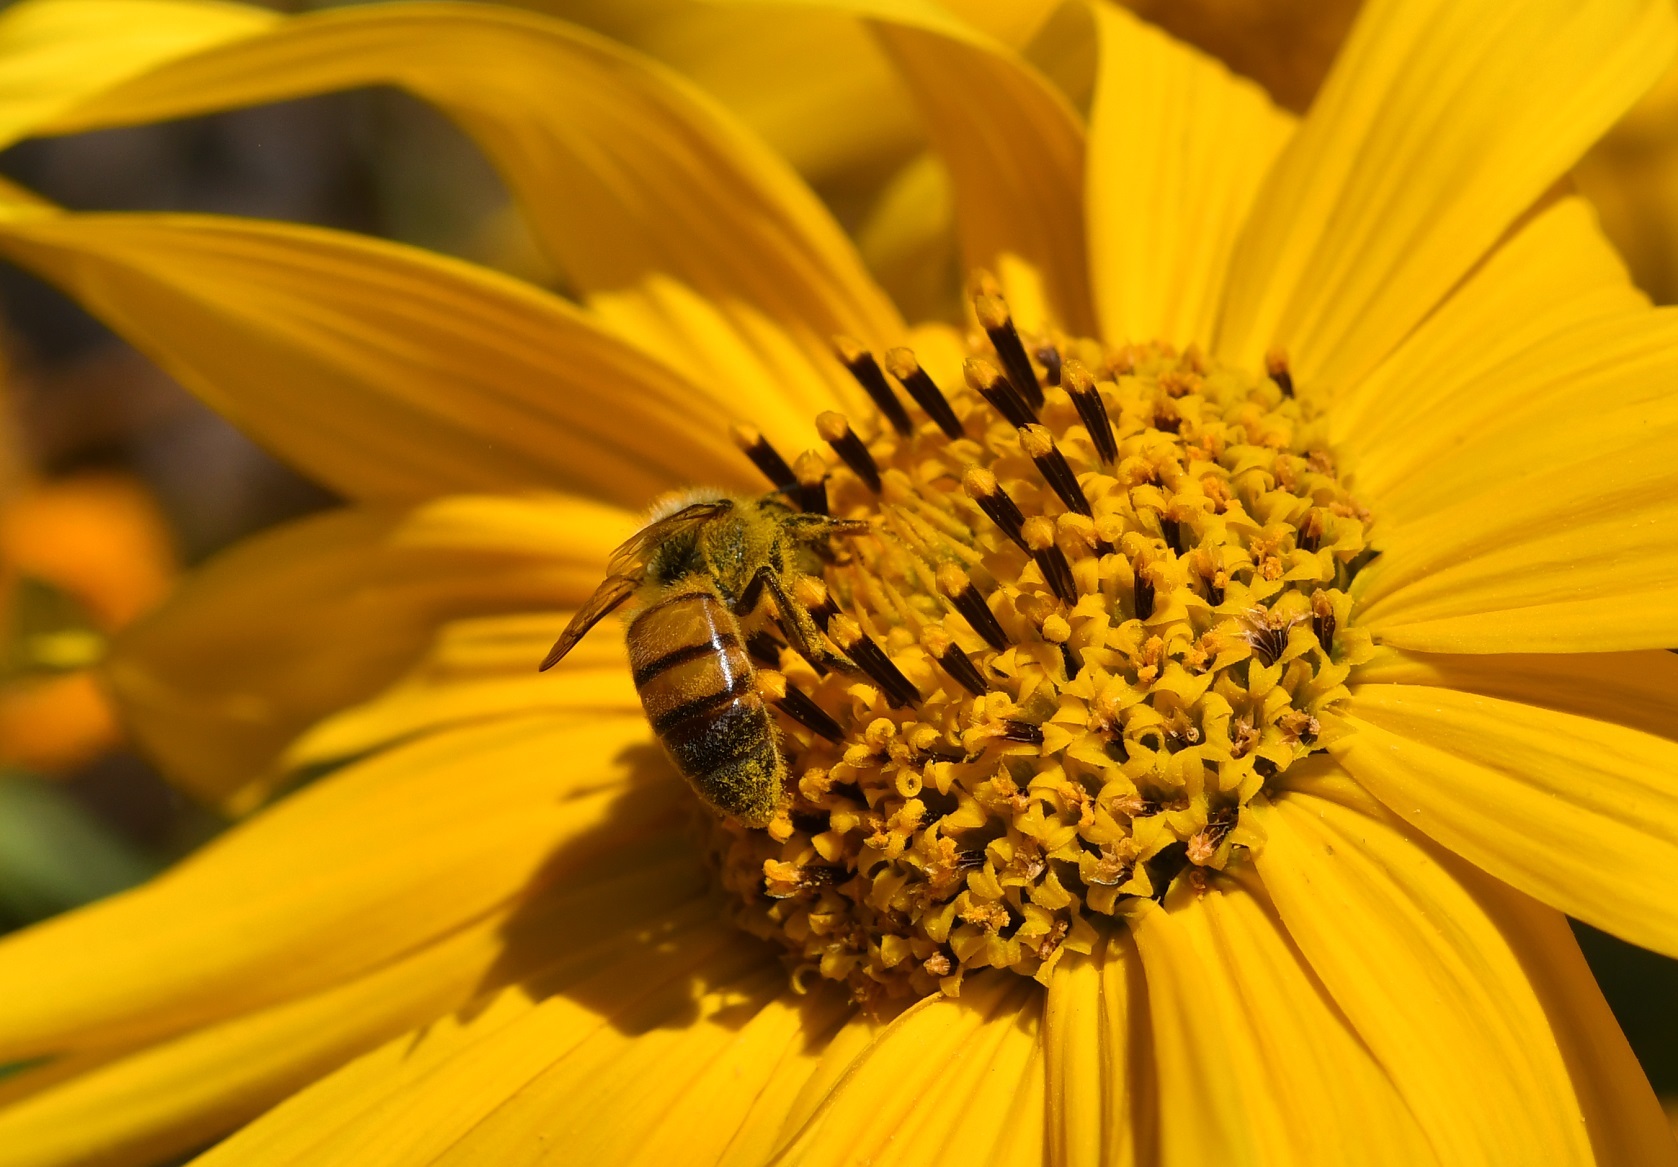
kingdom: Animalia
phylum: Arthropoda
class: Insecta
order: Hymenoptera
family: Apidae
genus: Apis
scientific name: Apis mellifera
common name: Honey bee
